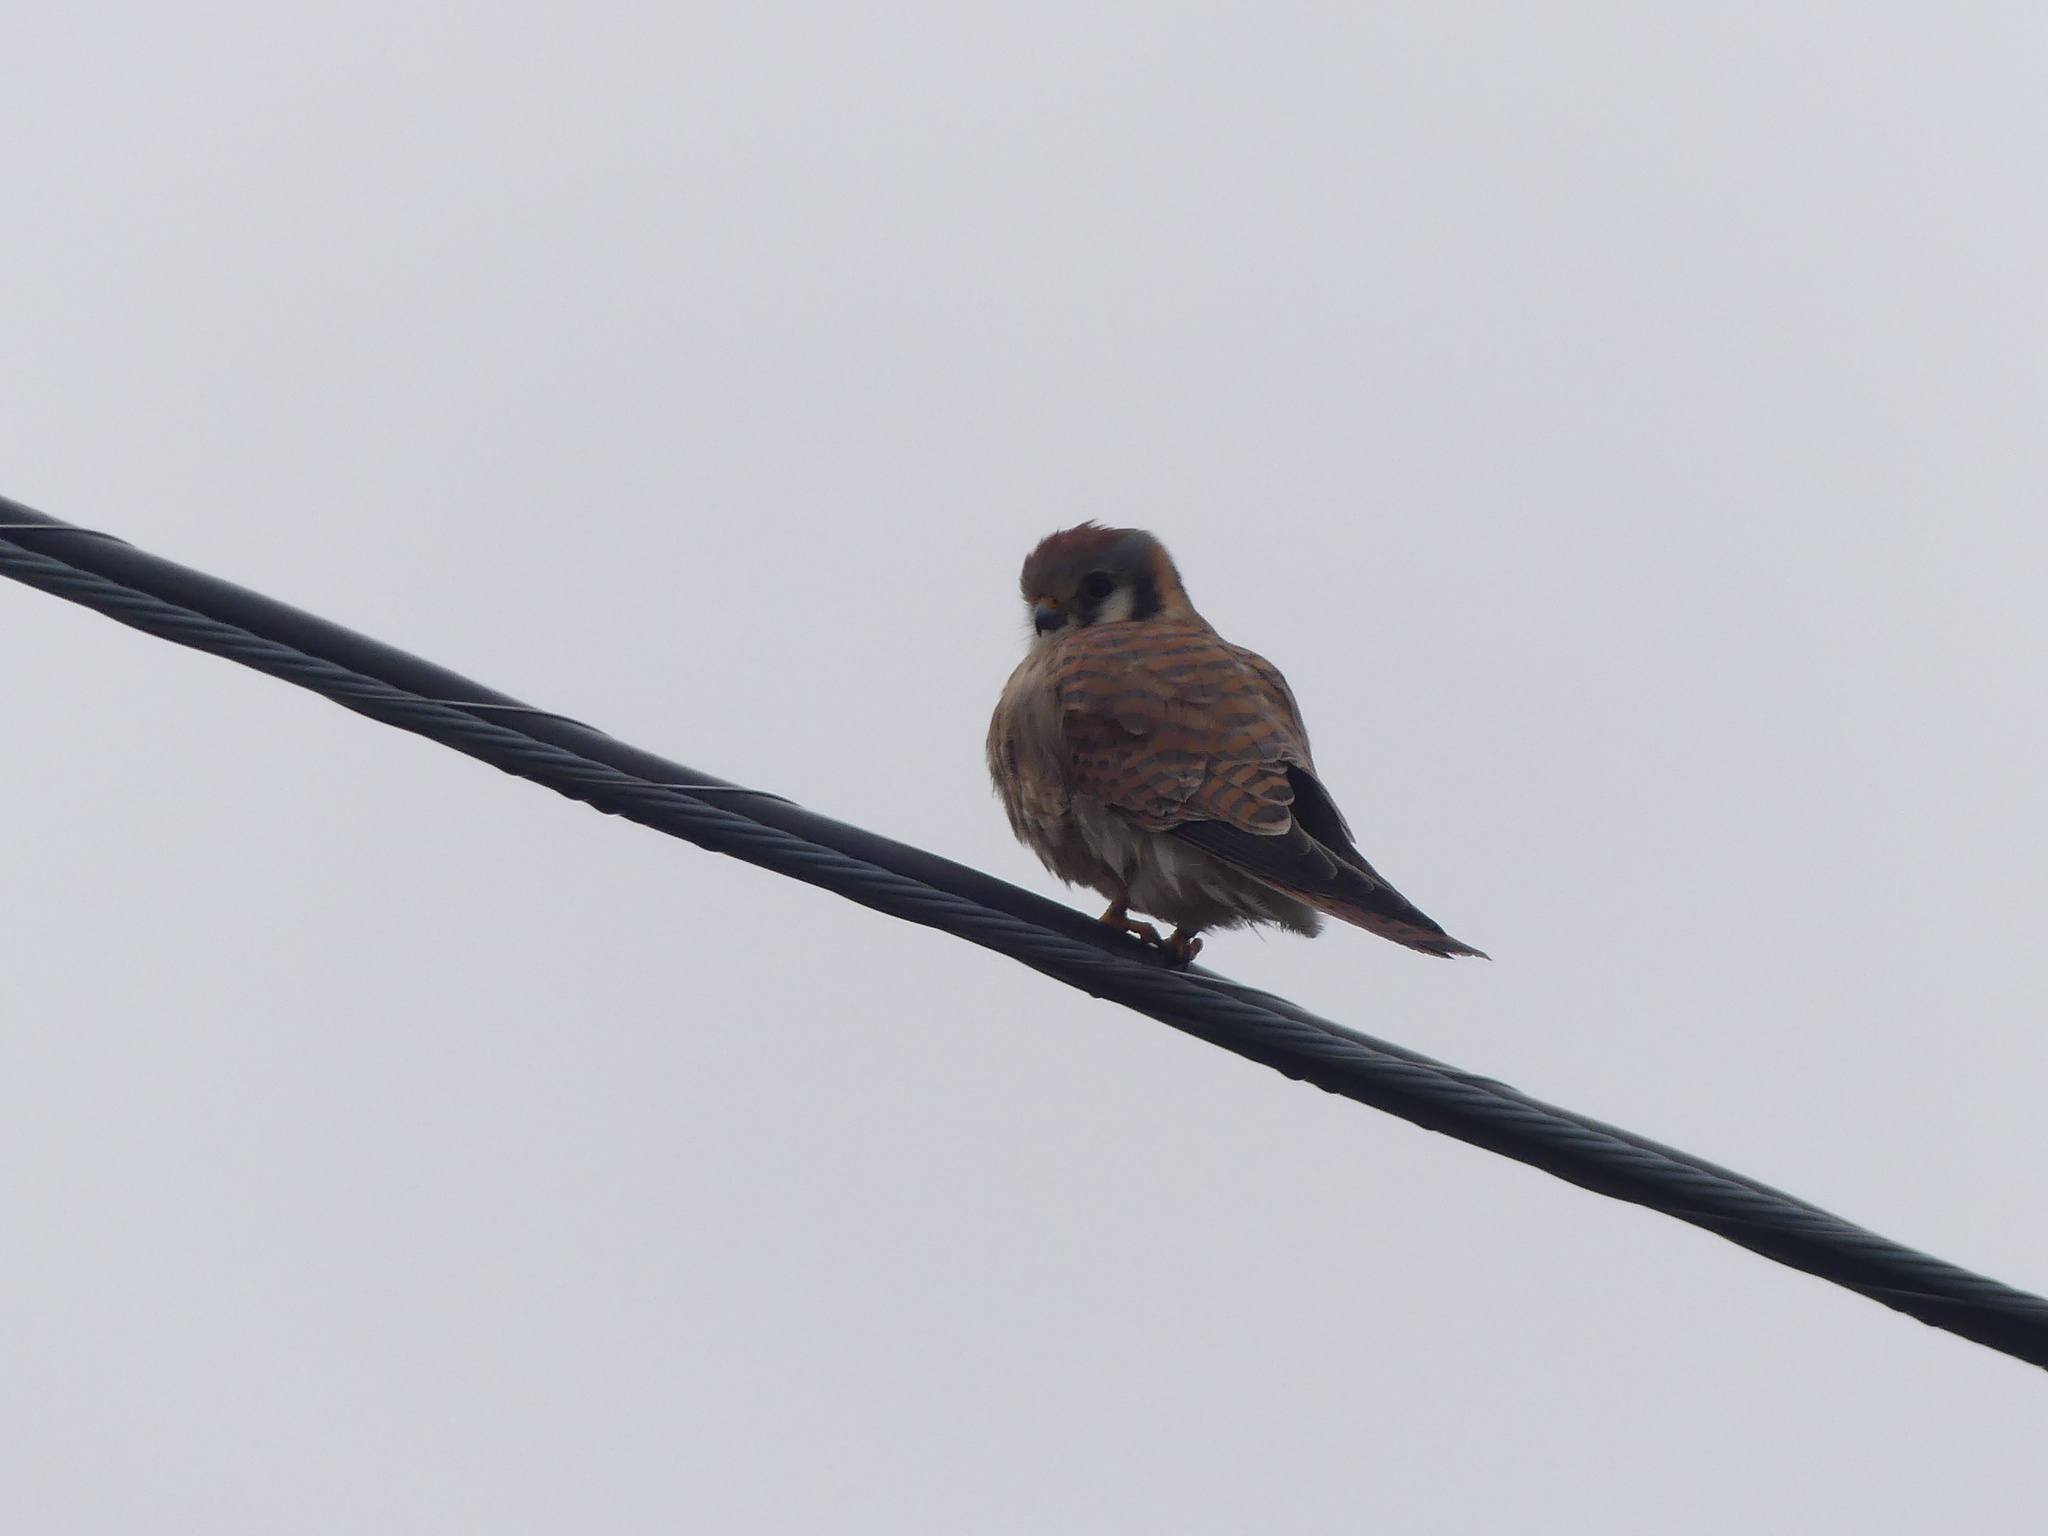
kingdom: Animalia
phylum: Chordata
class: Aves
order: Falconiformes
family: Falconidae
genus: Falco
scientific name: Falco sparverius
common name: American kestrel
